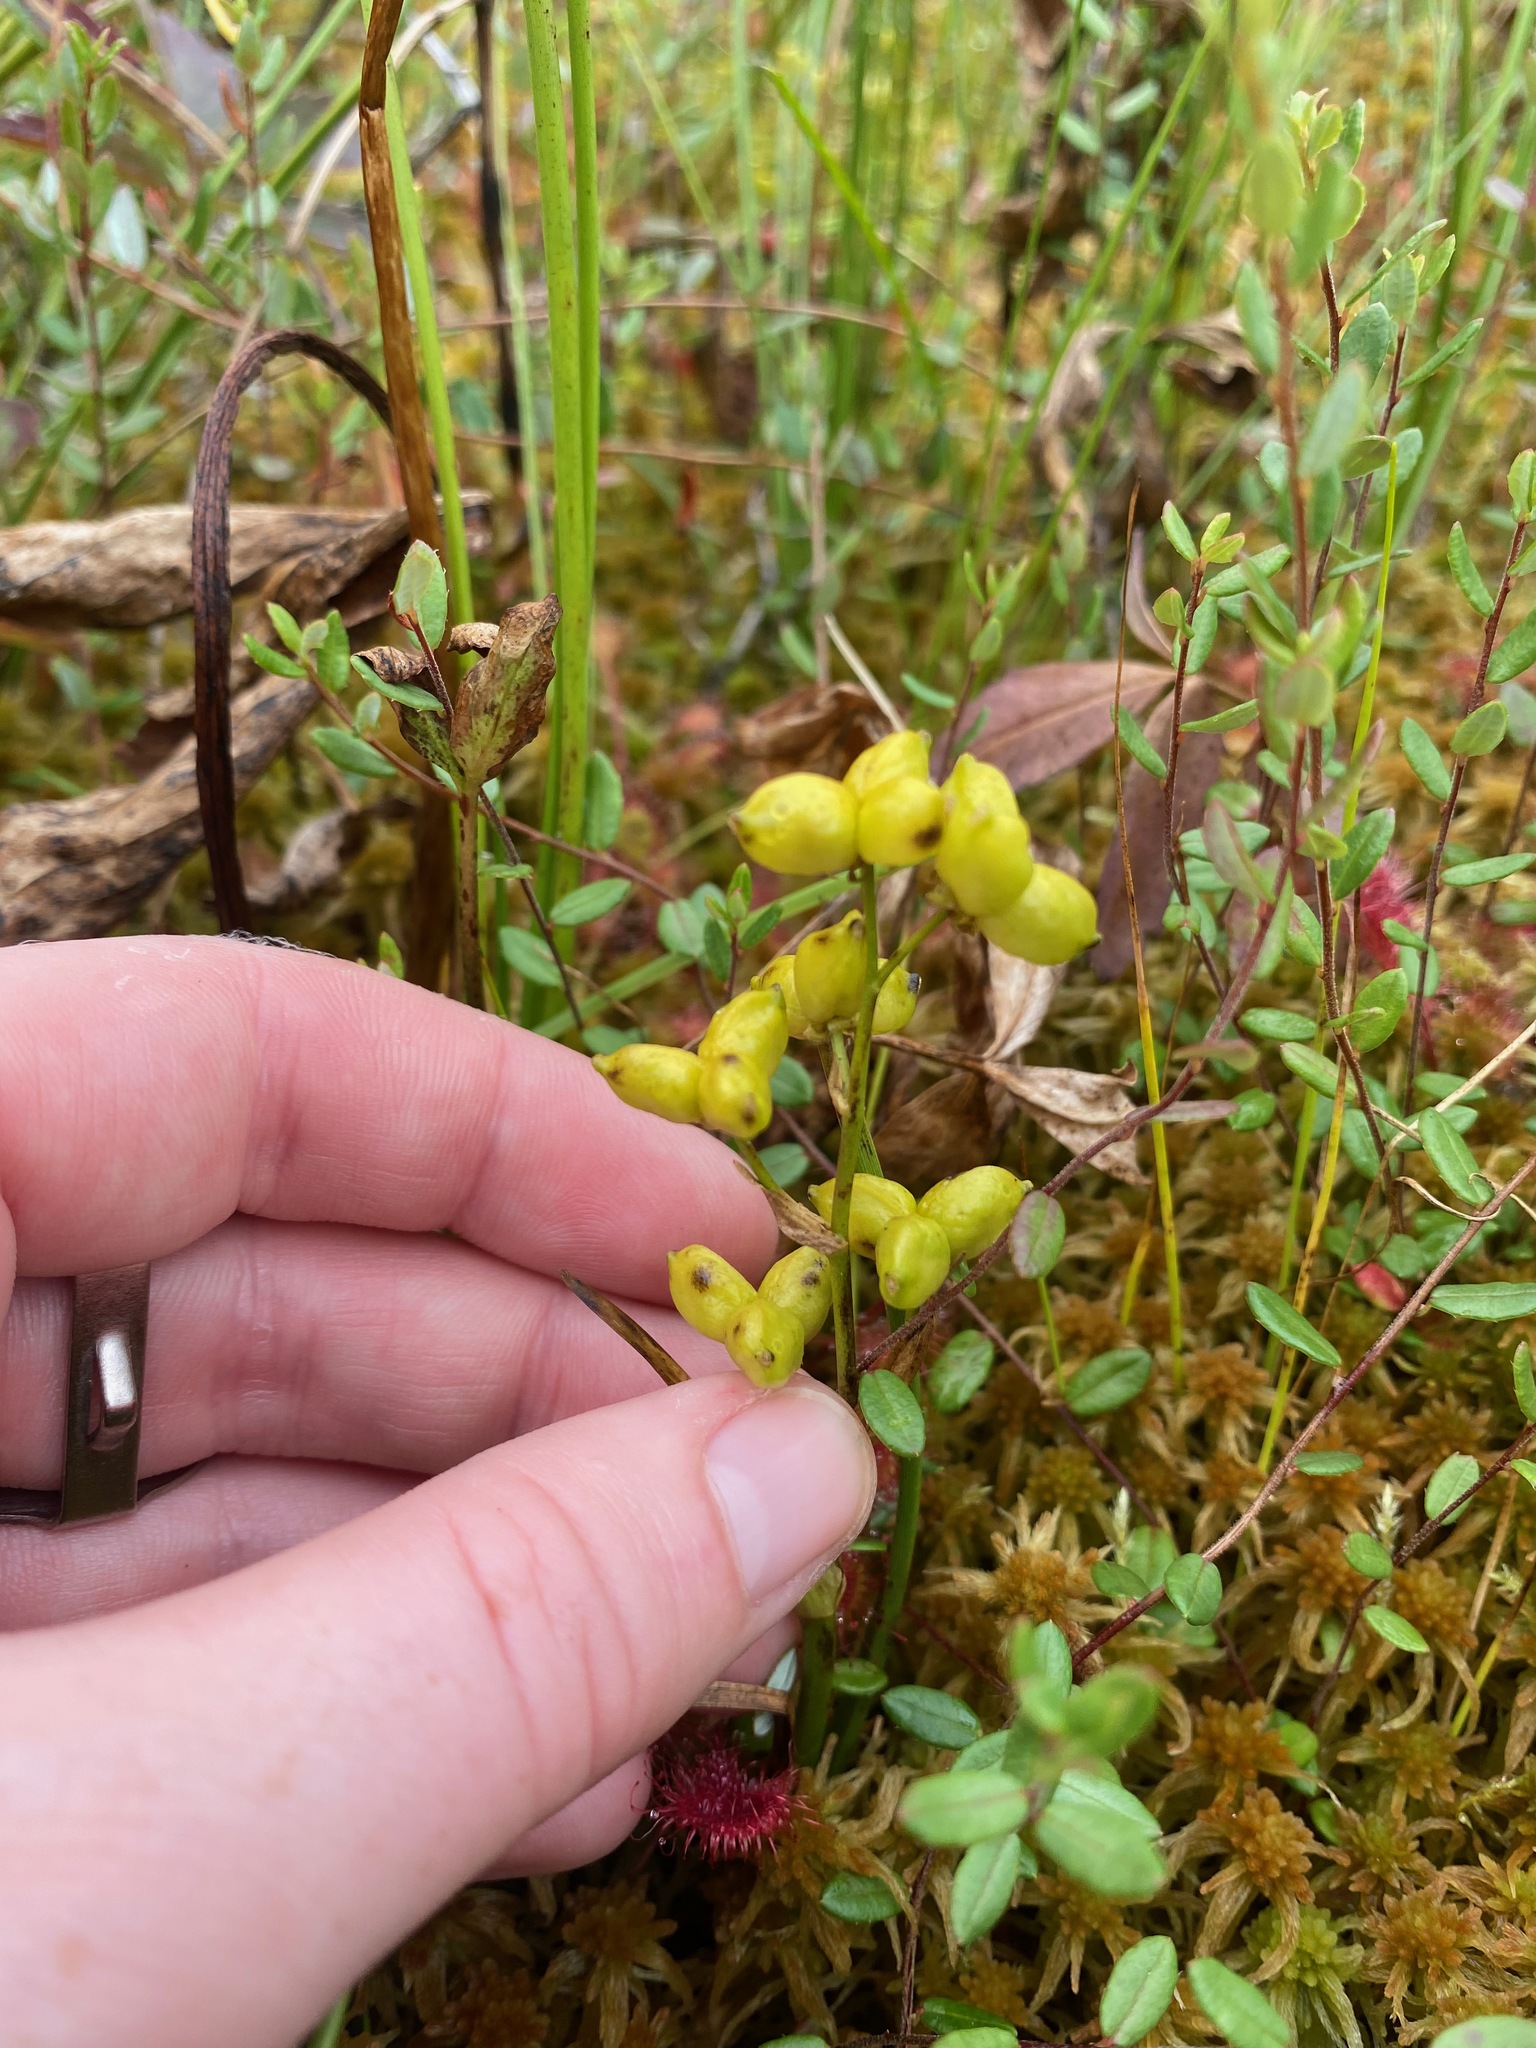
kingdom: Plantae
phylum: Tracheophyta
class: Liliopsida
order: Alismatales
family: Scheuchzeriaceae
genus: Scheuchzeria
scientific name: Scheuchzeria palustris
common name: Rannoch-rush
